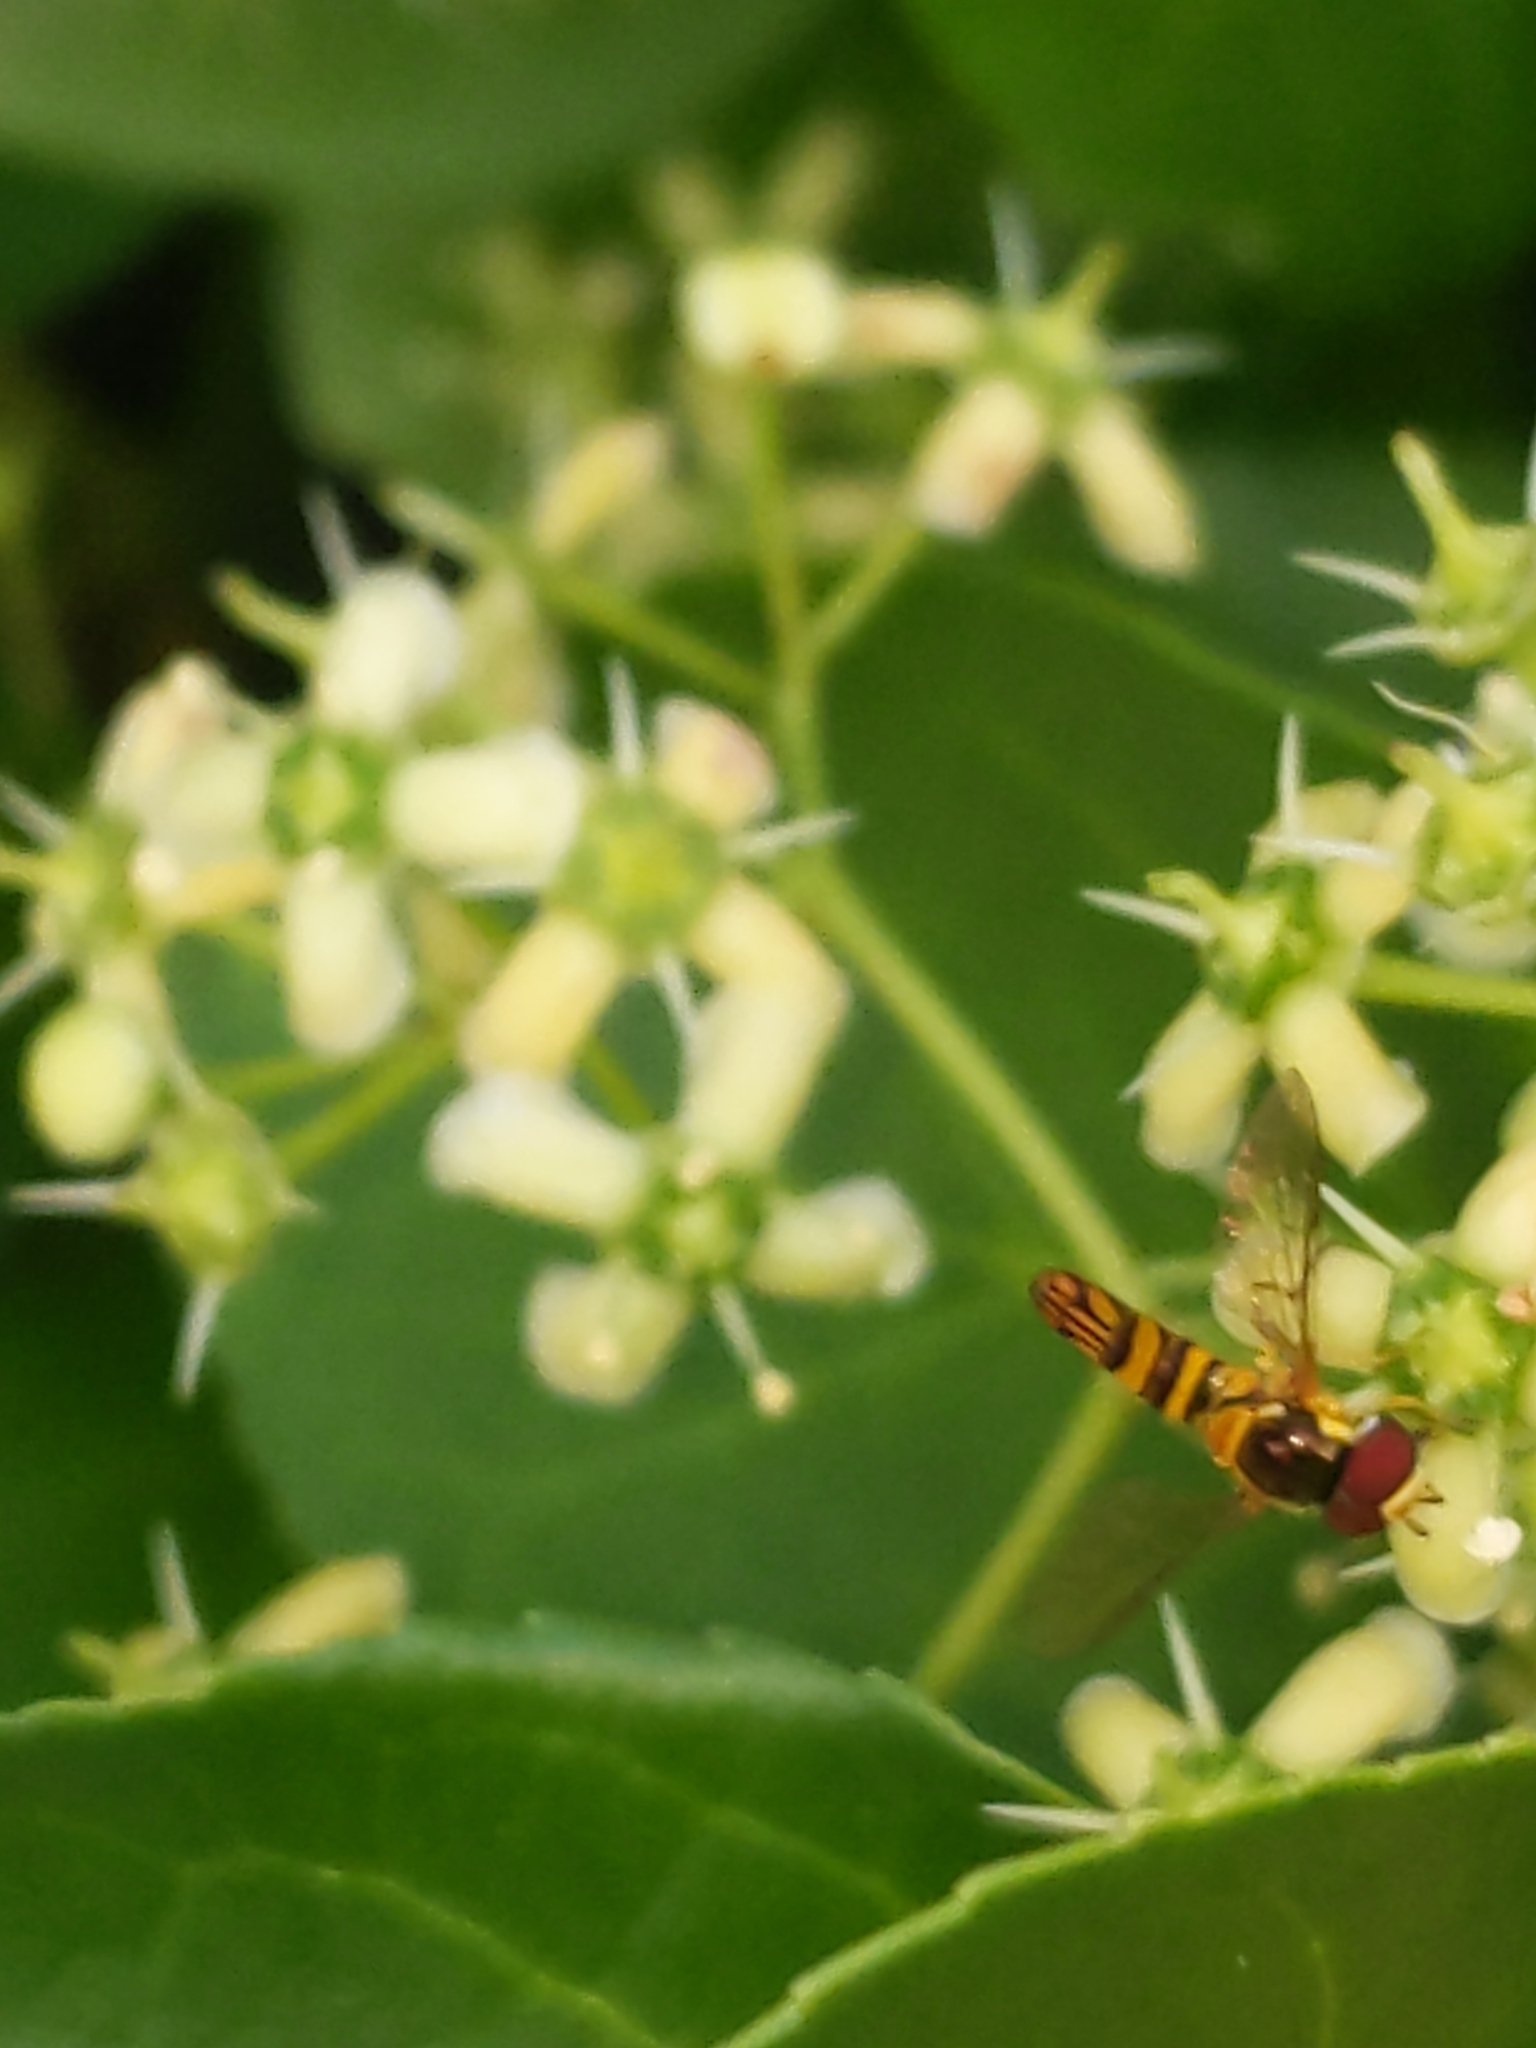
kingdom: Animalia
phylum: Arthropoda
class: Insecta
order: Diptera
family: Syrphidae
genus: Allograpta
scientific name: Allograpta obliqua
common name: Common oblique syrphid
